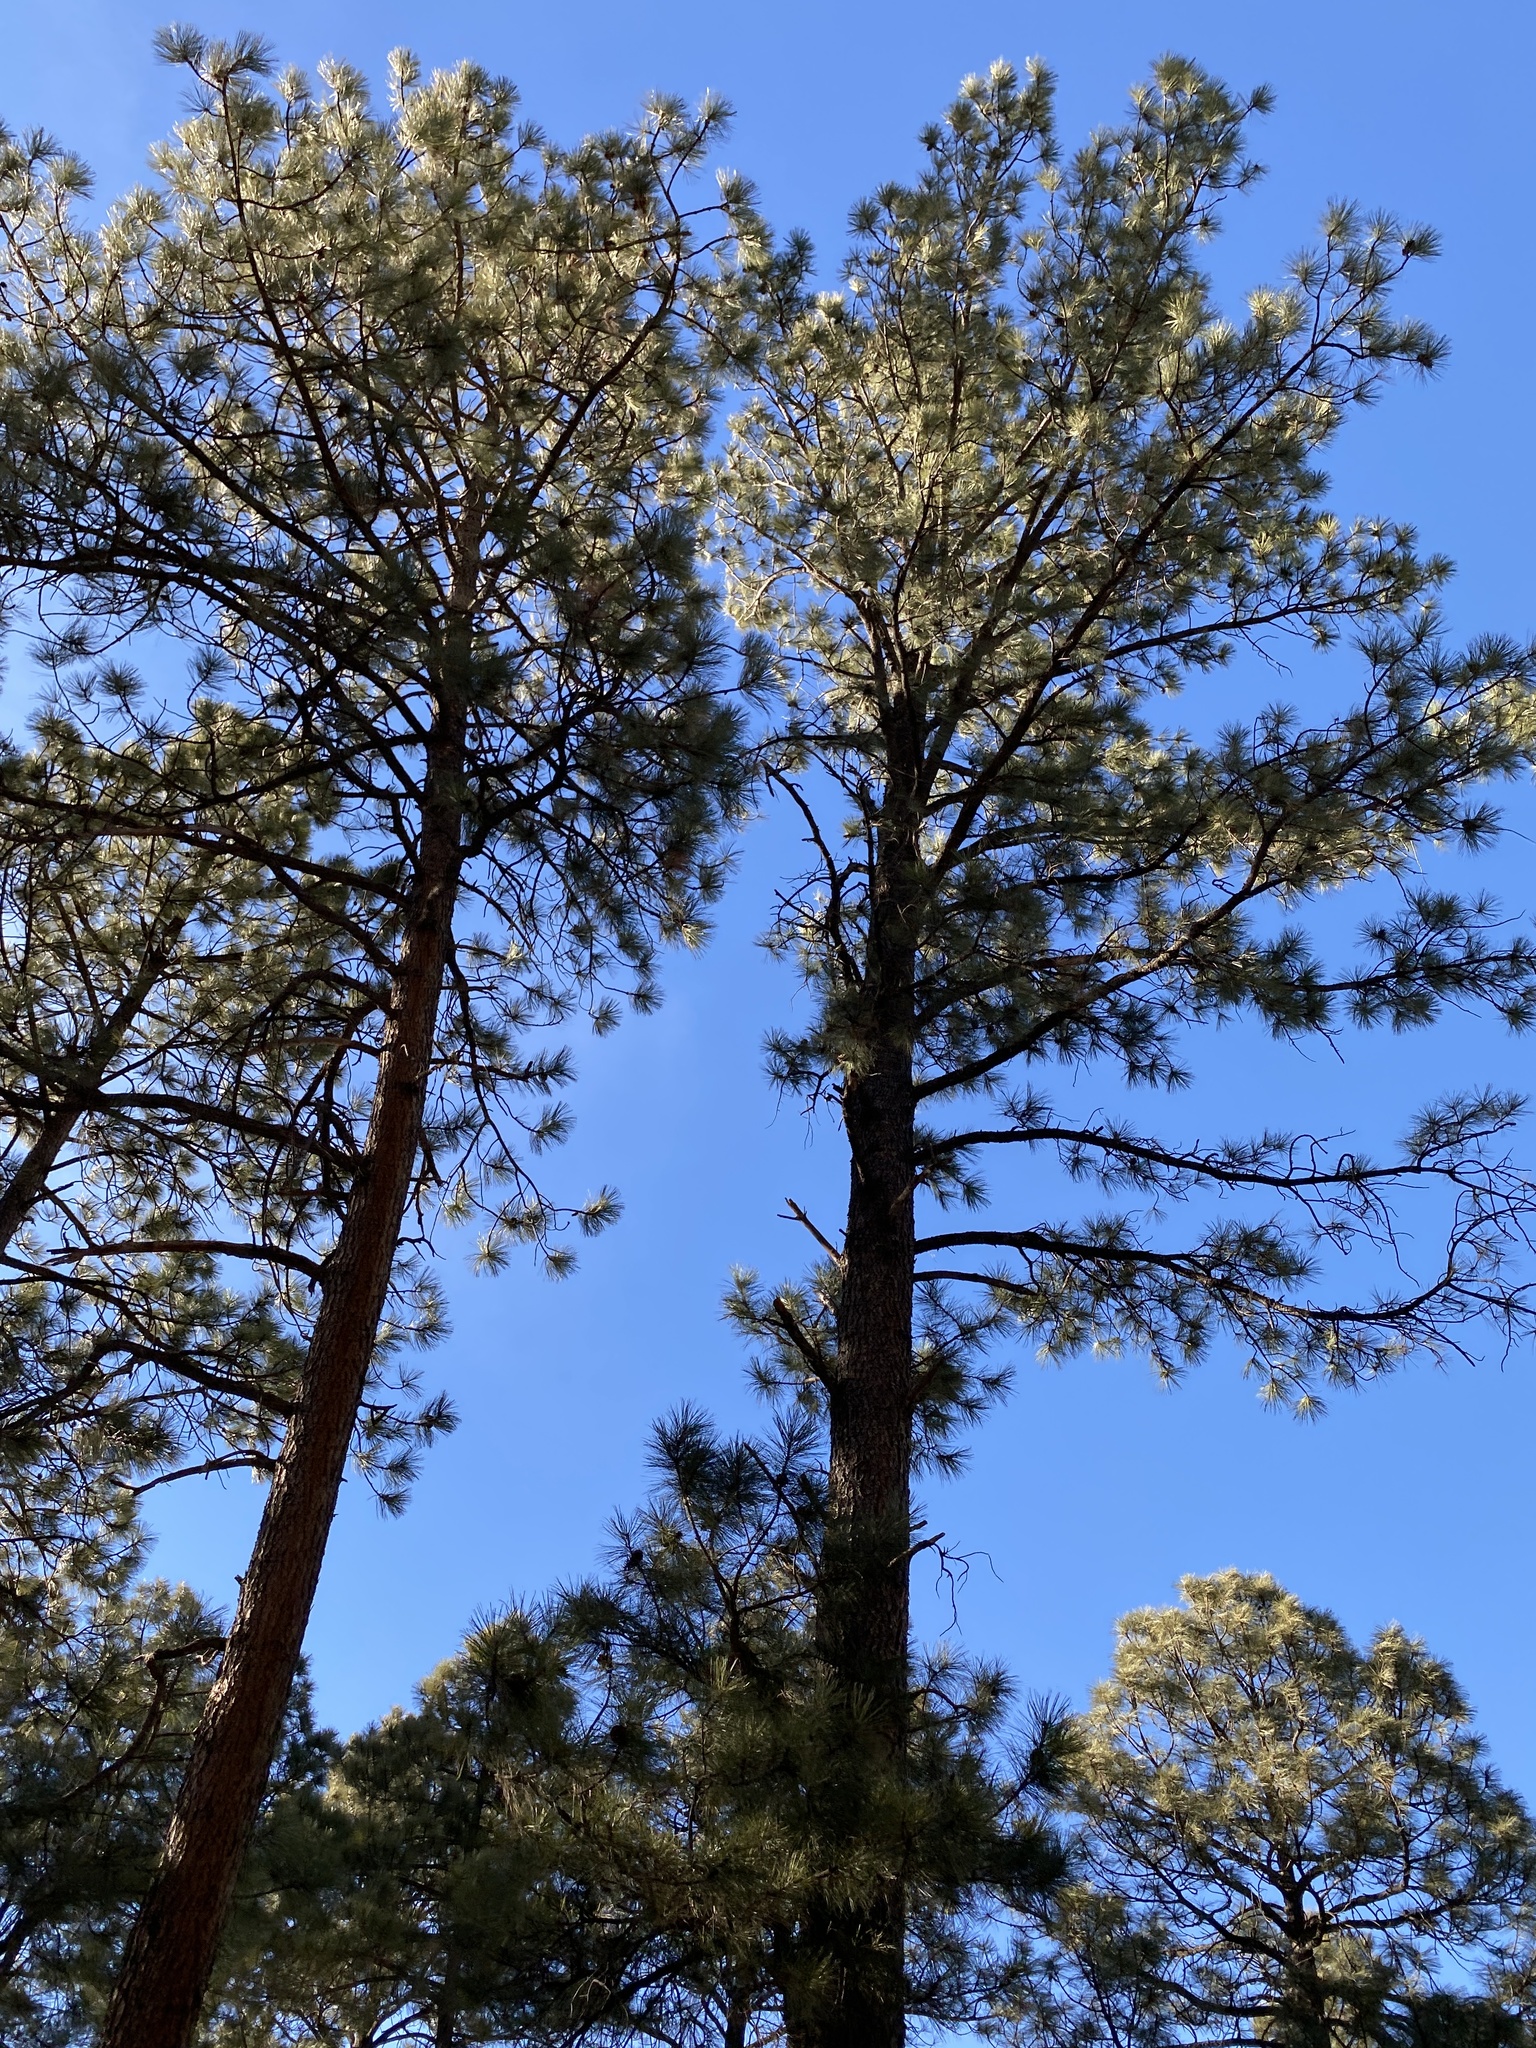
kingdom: Plantae
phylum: Tracheophyta
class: Pinopsida
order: Pinales
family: Pinaceae
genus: Pinus
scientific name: Pinus ponderosa
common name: Western yellow-pine
